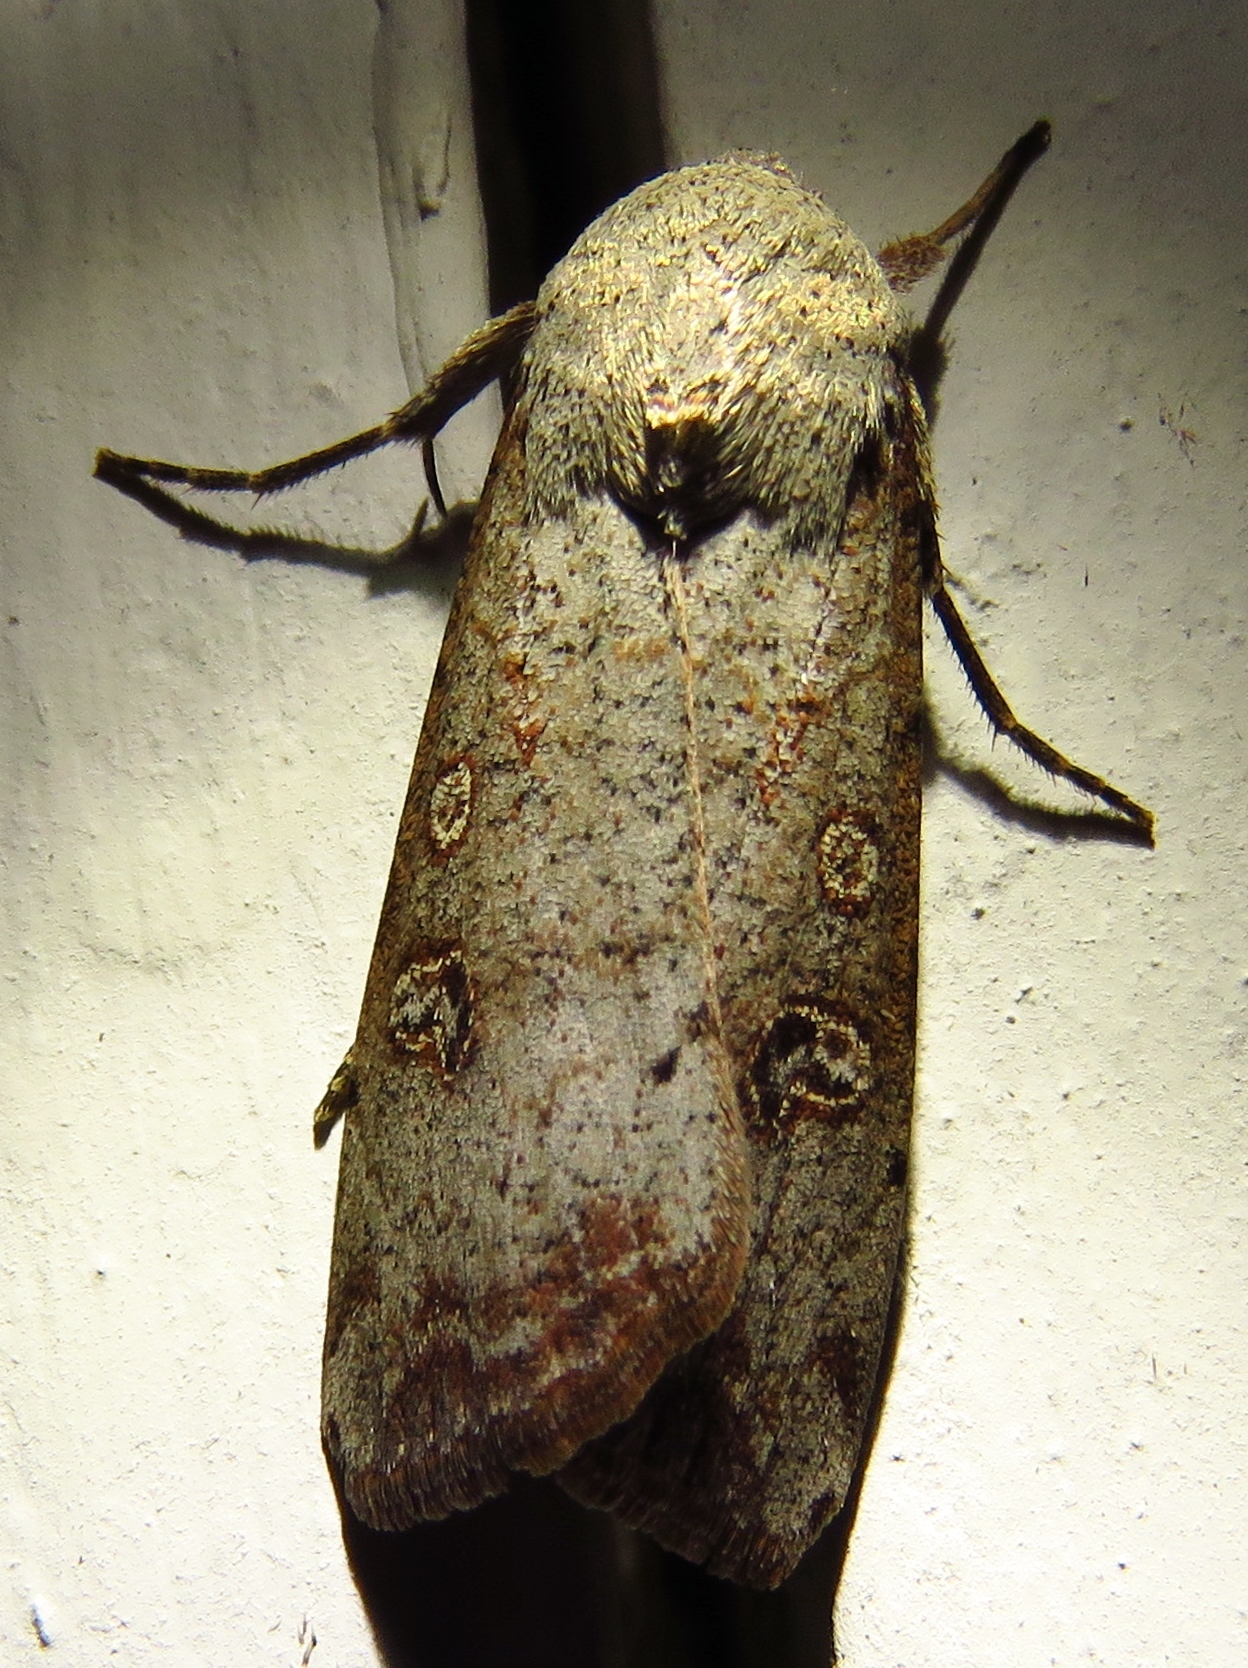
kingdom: Animalia
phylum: Arthropoda
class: Insecta
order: Lepidoptera
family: Noctuidae
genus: Anicla
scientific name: Anicla infecta
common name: Green cutworm
